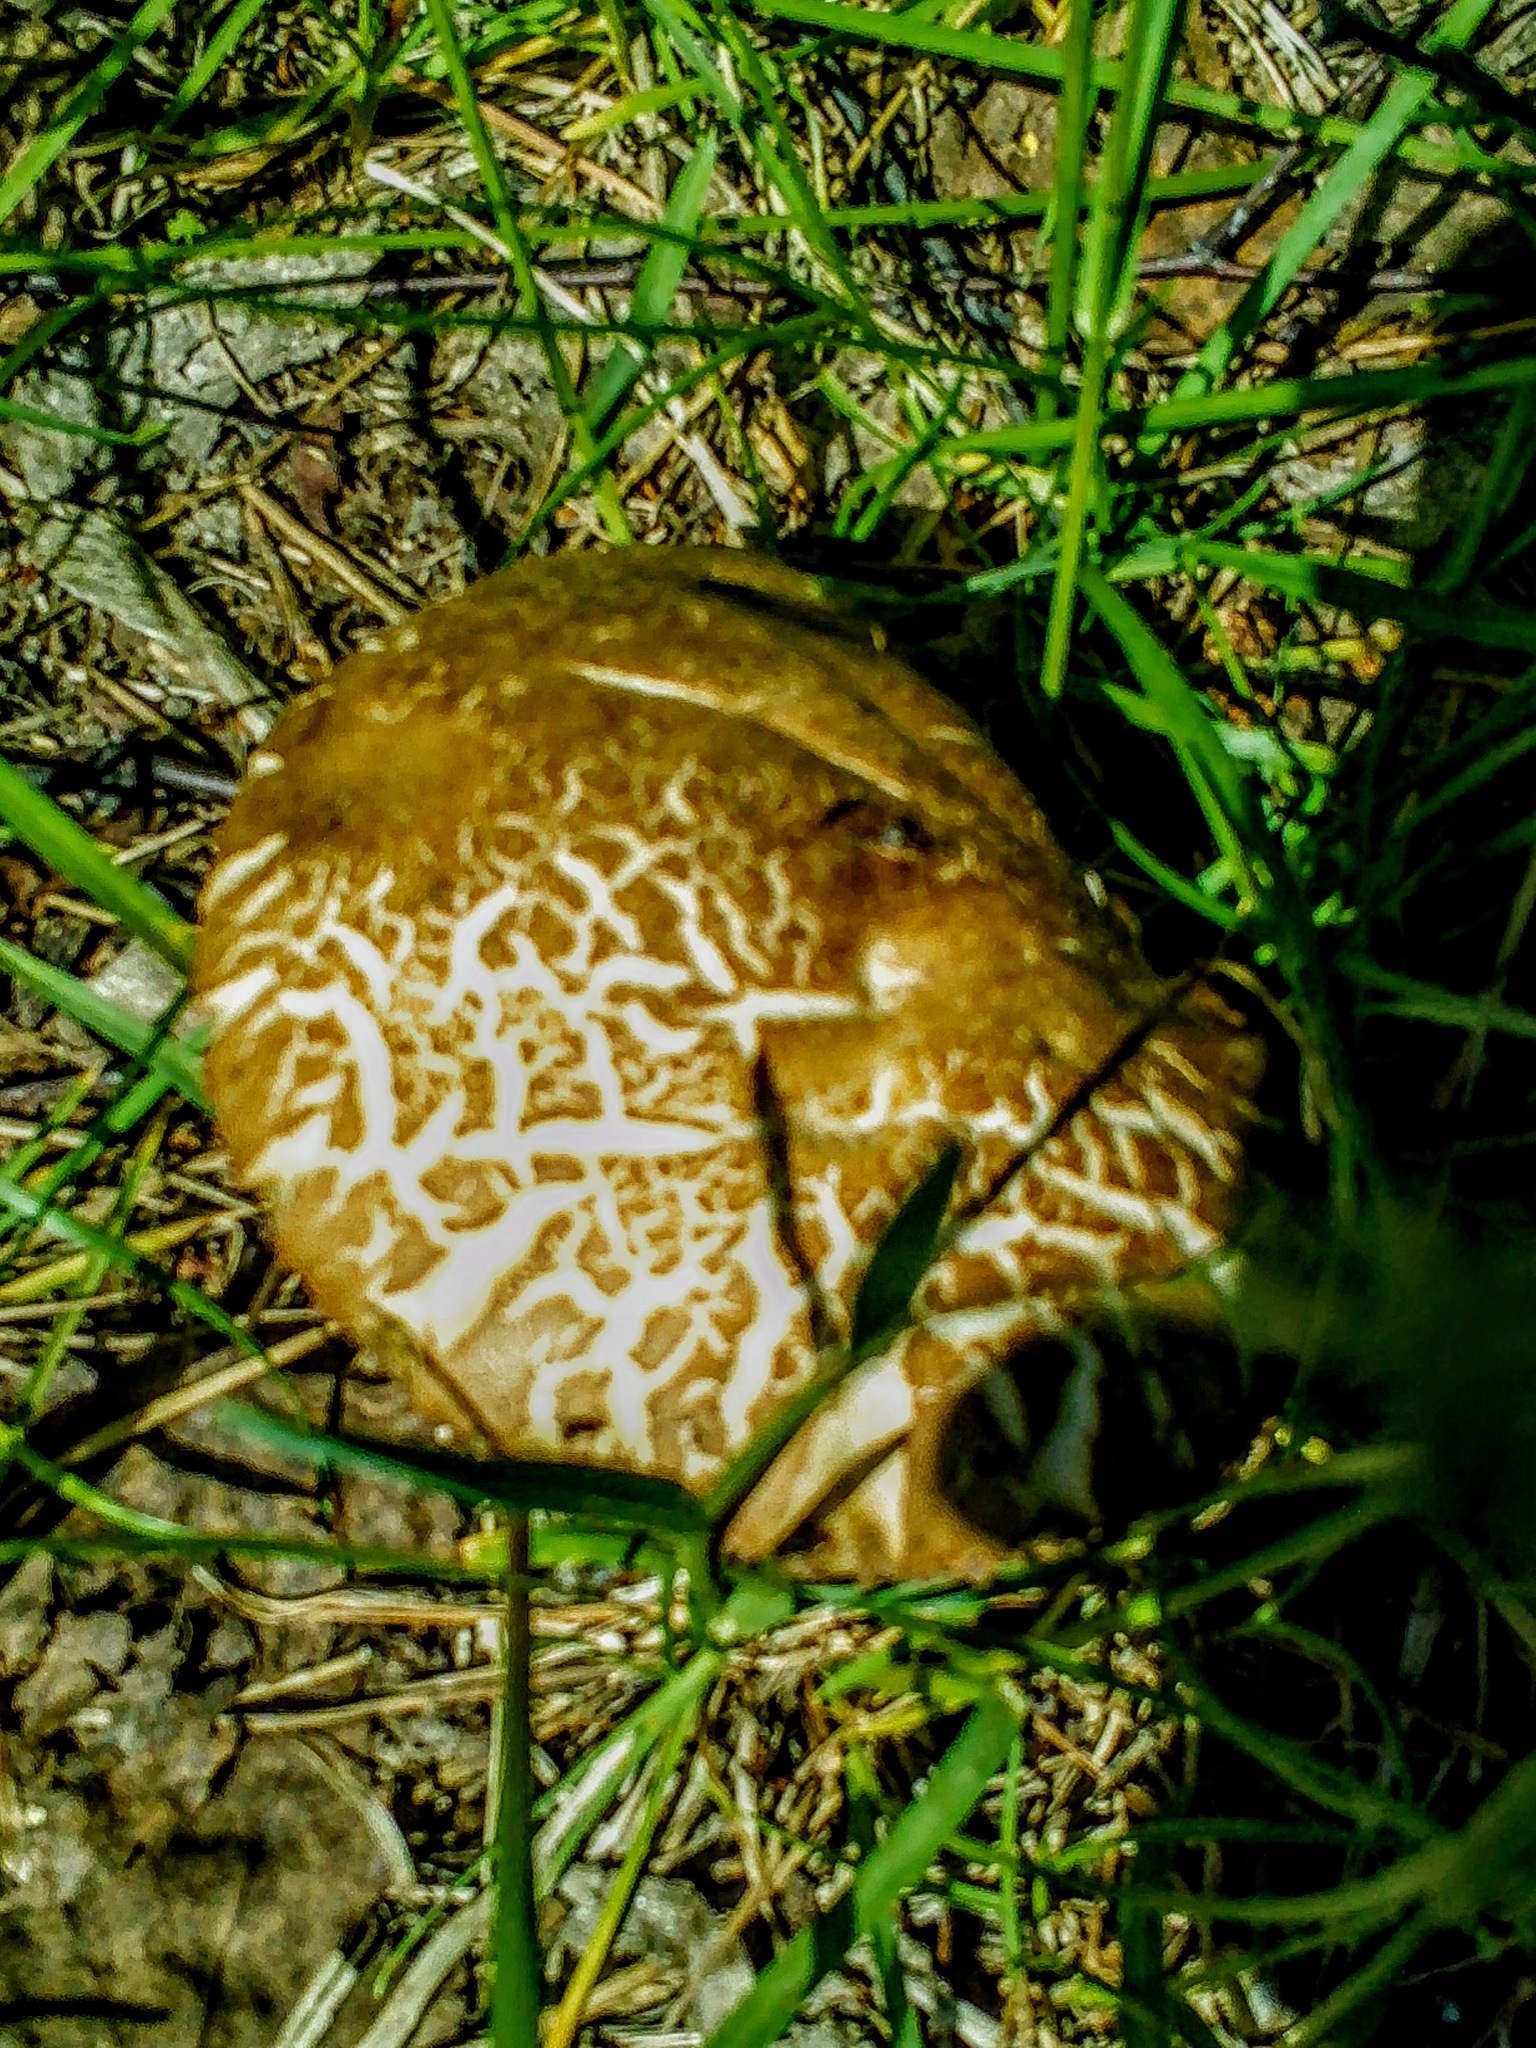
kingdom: Fungi
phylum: Basidiomycota
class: Agaricomycetes
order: Boletales
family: Boletaceae
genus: Leccinum
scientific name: Leccinum scabrum
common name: Blushing bolete
